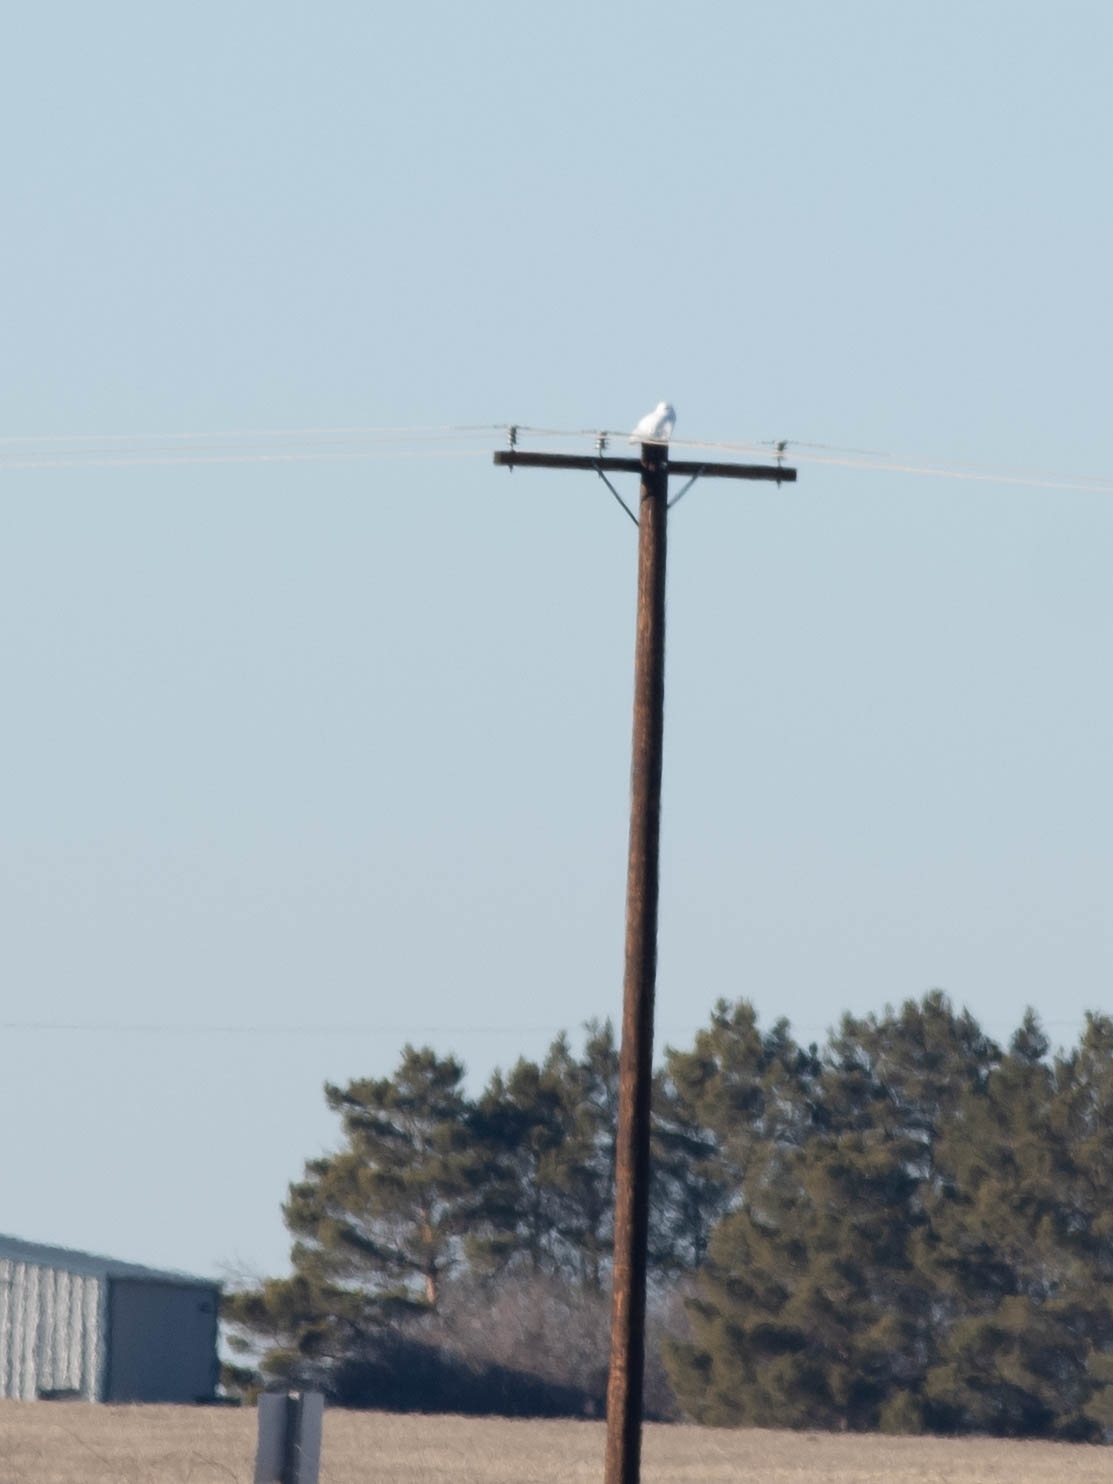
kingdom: Animalia
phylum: Chordata
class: Aves
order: Strigiformes
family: Strigidae
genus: Bubo
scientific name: Bubo scandiacus
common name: Snowy owl
